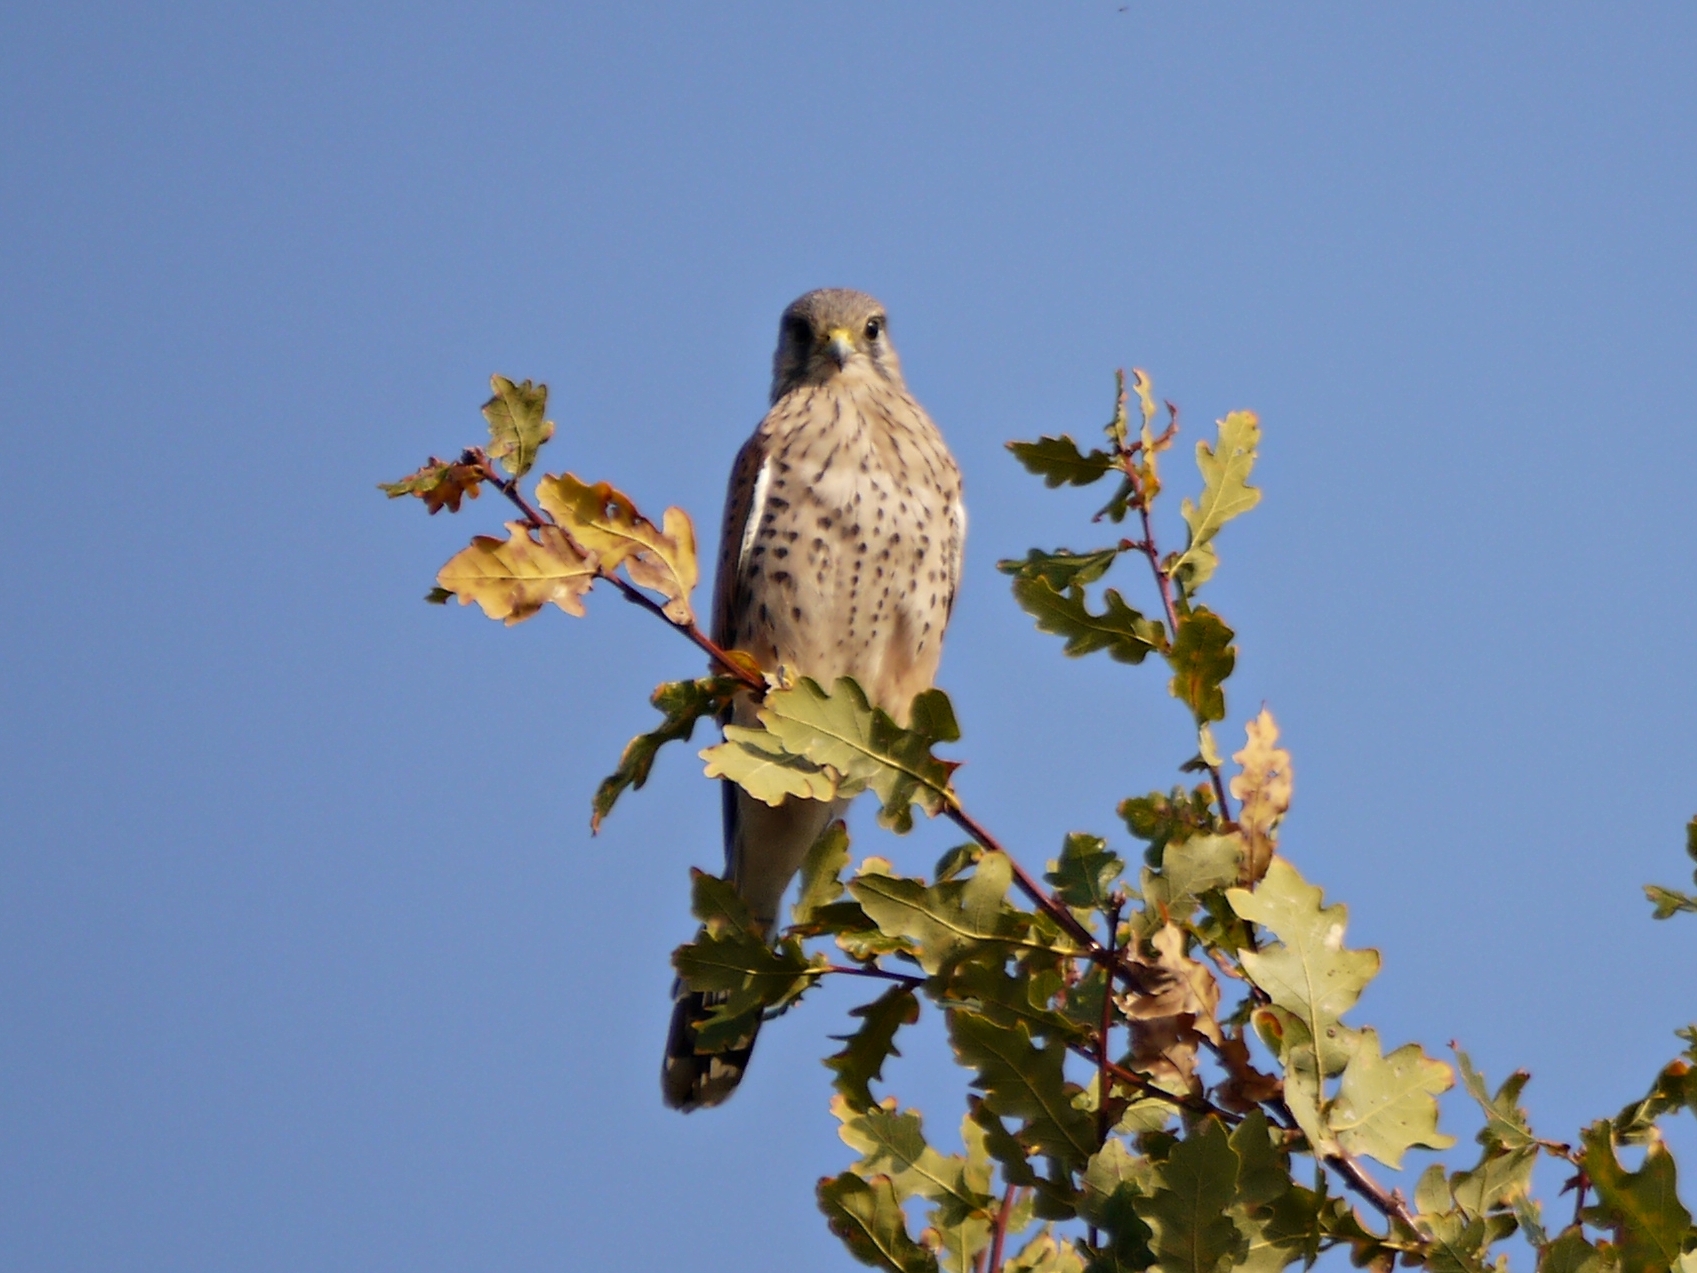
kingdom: Animalia
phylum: Chordata
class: Aves
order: Falconiformes
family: Falconidae
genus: Falco
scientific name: Falco tinnunculus
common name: Common kestrel
